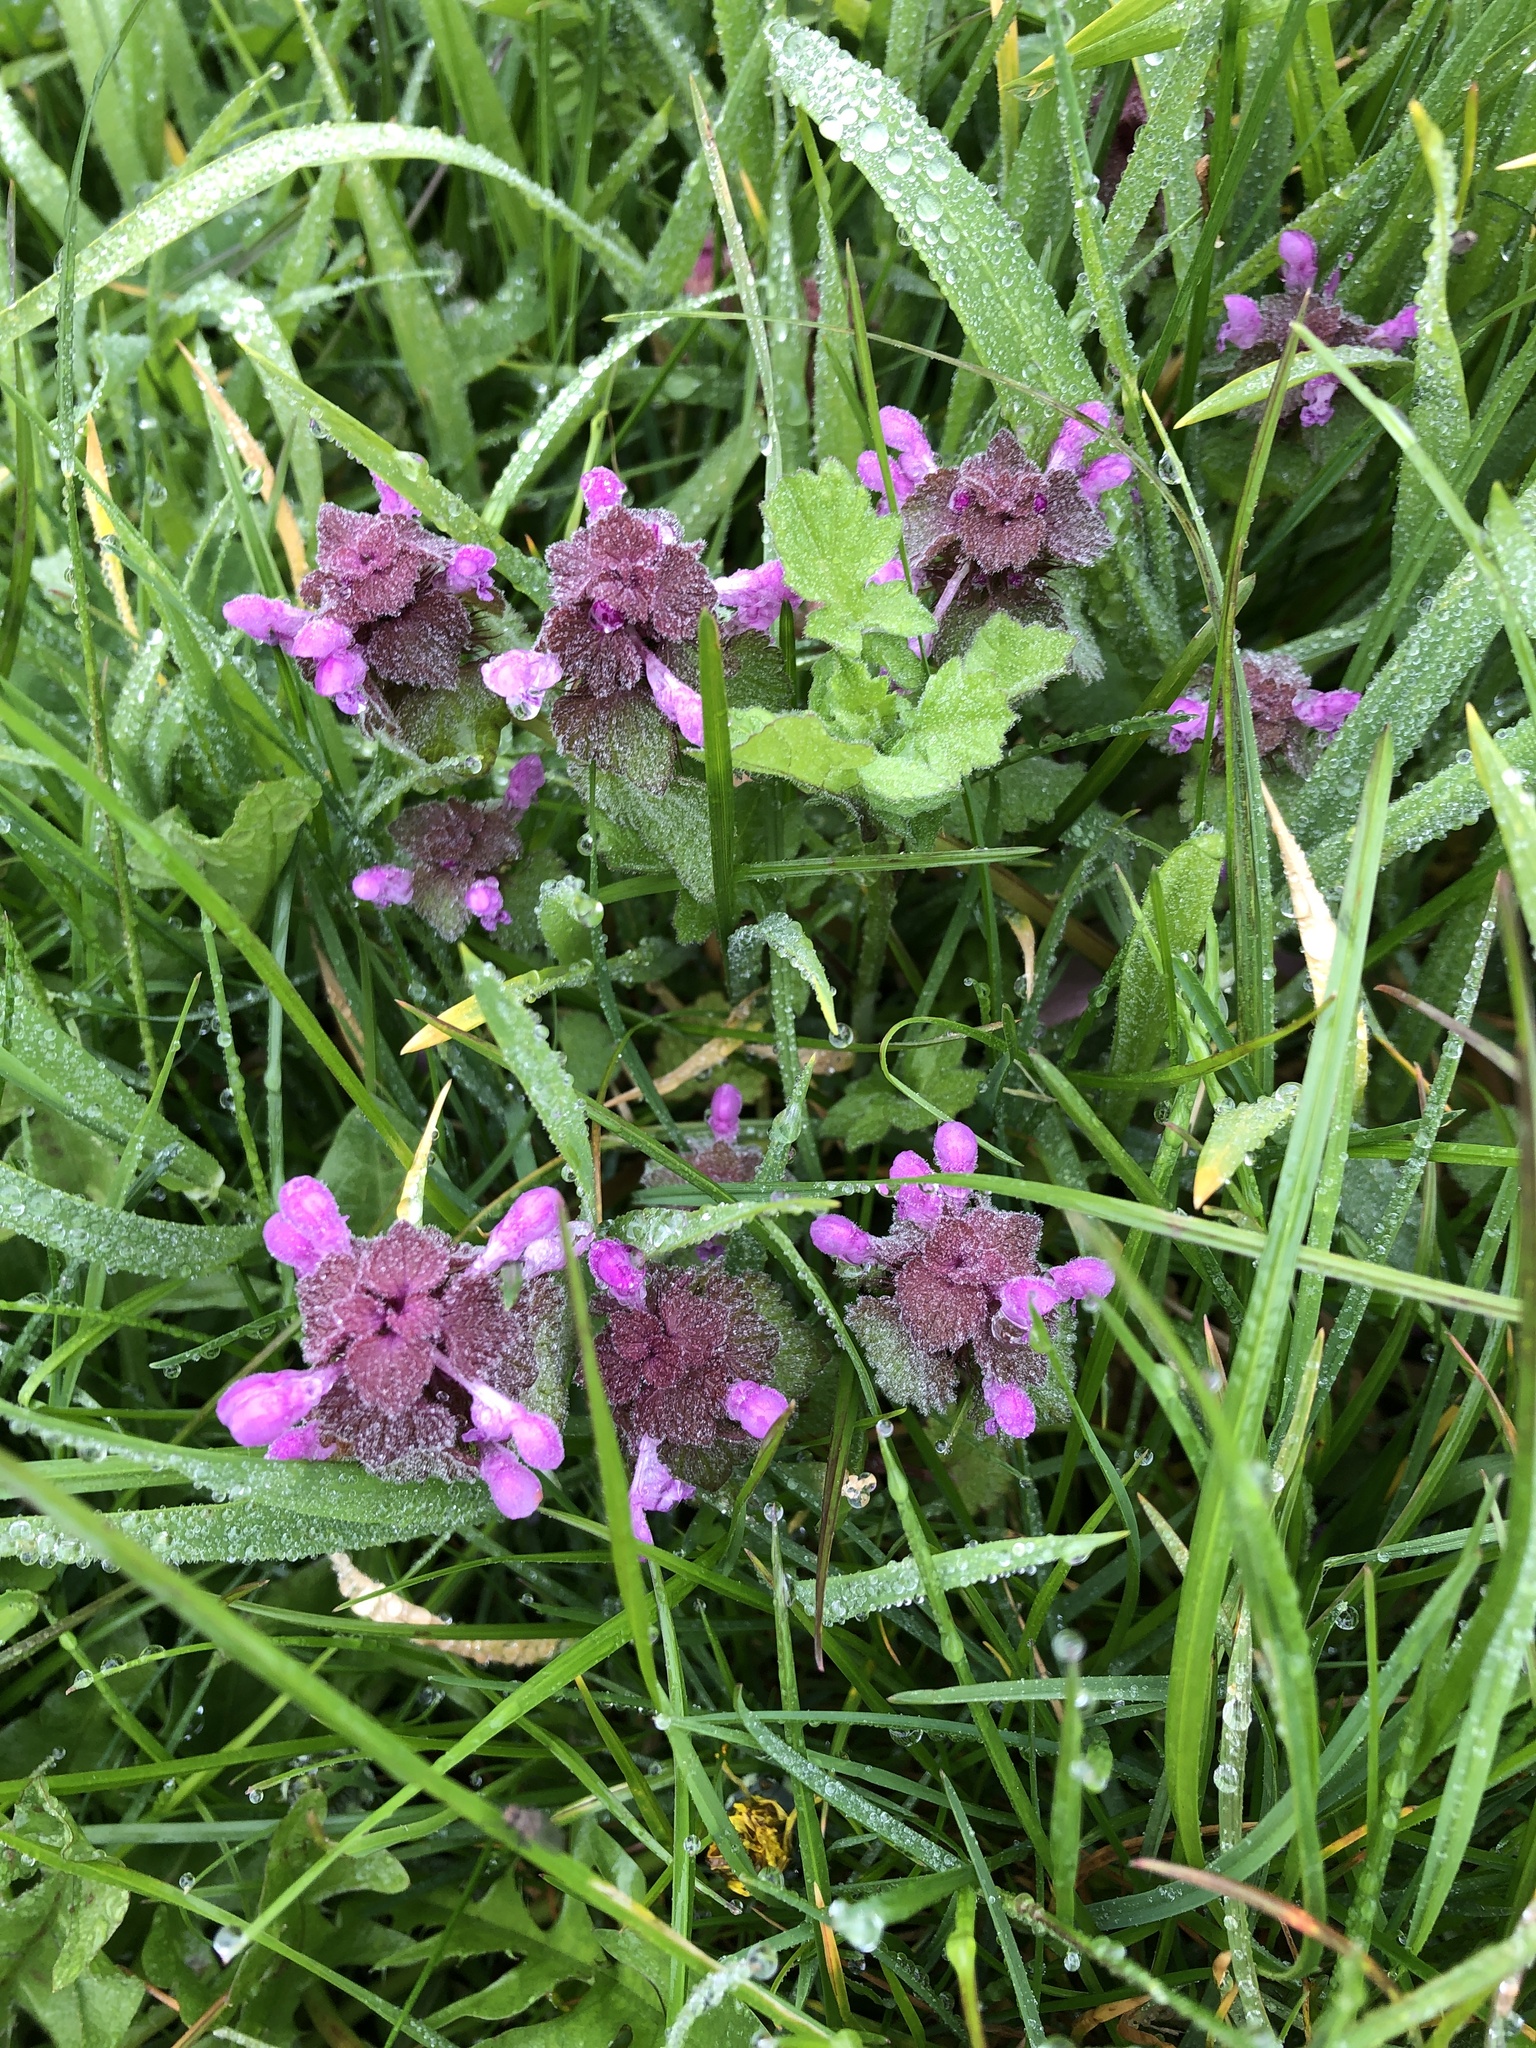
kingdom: Plantae
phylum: Tracheophyta
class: Magnoliopsida
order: Lamiales
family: Lamiaceae
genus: Lamium
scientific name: Lamium purpureum
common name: Red dead-nettle
